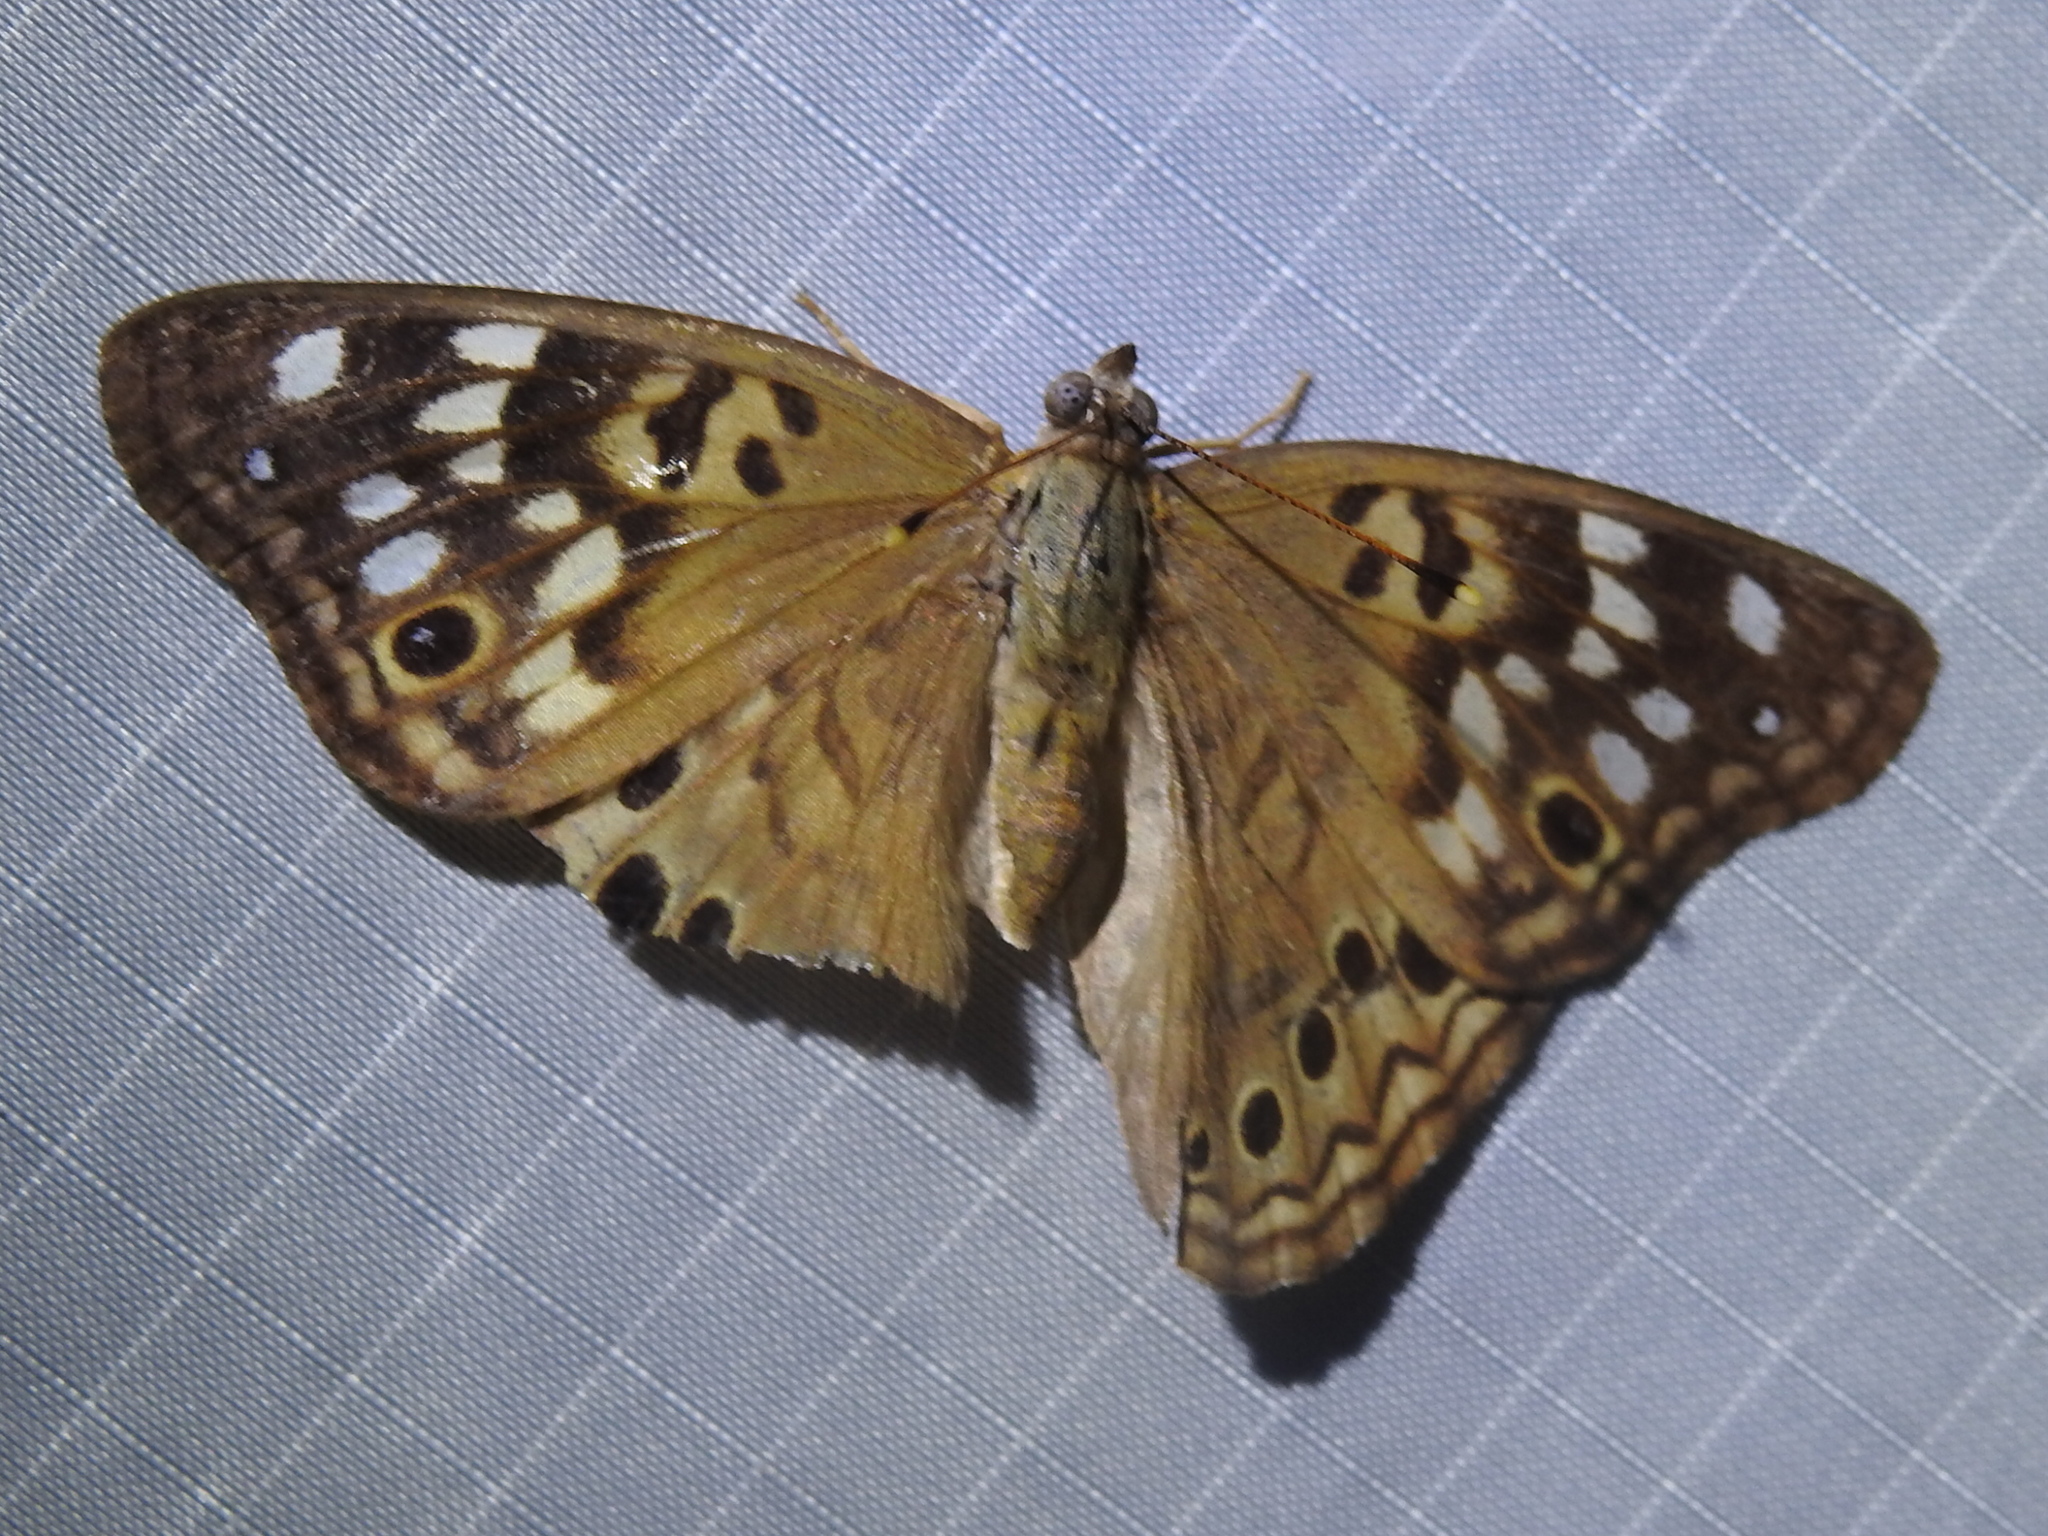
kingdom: Animalia
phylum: Arthropoda
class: Insecta
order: Lepidoptera
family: Nymphalidae
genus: Asterocampa
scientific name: Asterocampa celtis
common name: Hackberry emperor
